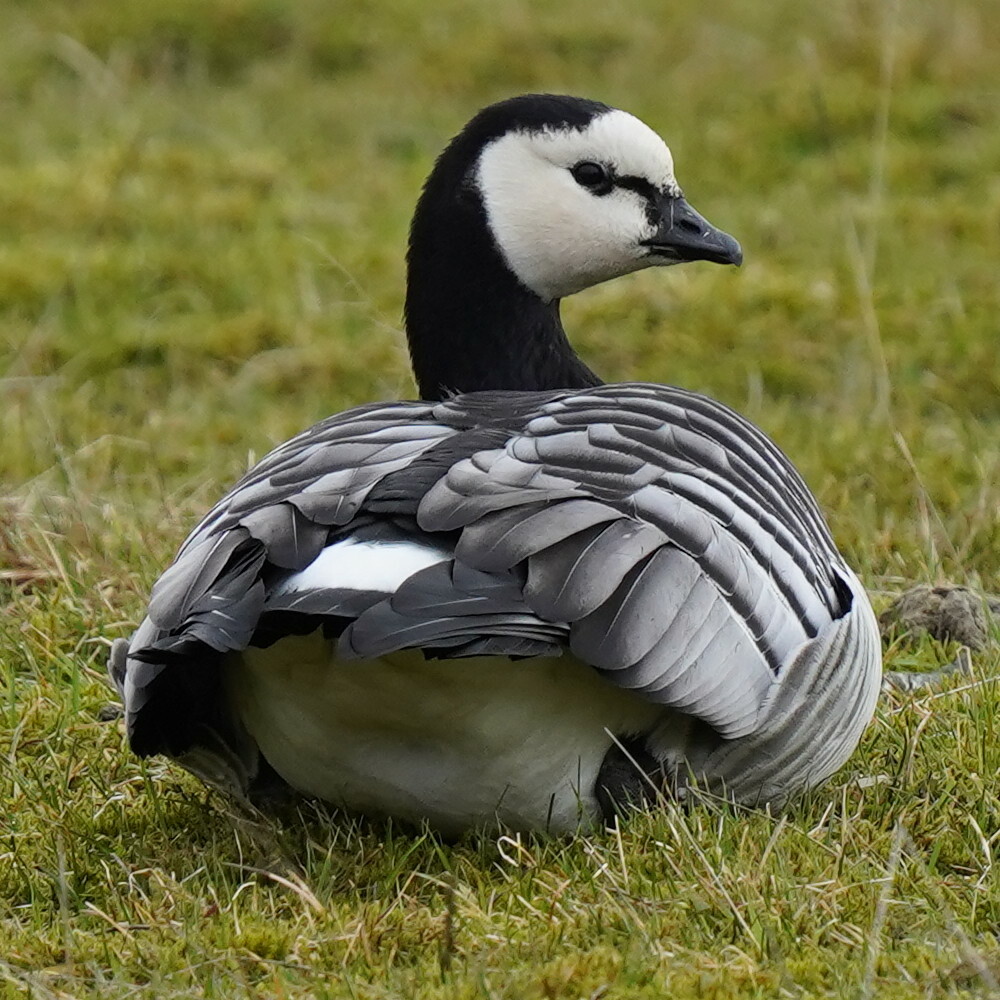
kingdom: Animalia
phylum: Chordata
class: Aves
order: Anseriformes
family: Anatidae
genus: Branta
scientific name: Branta leucopsis
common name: Barnacle goose
